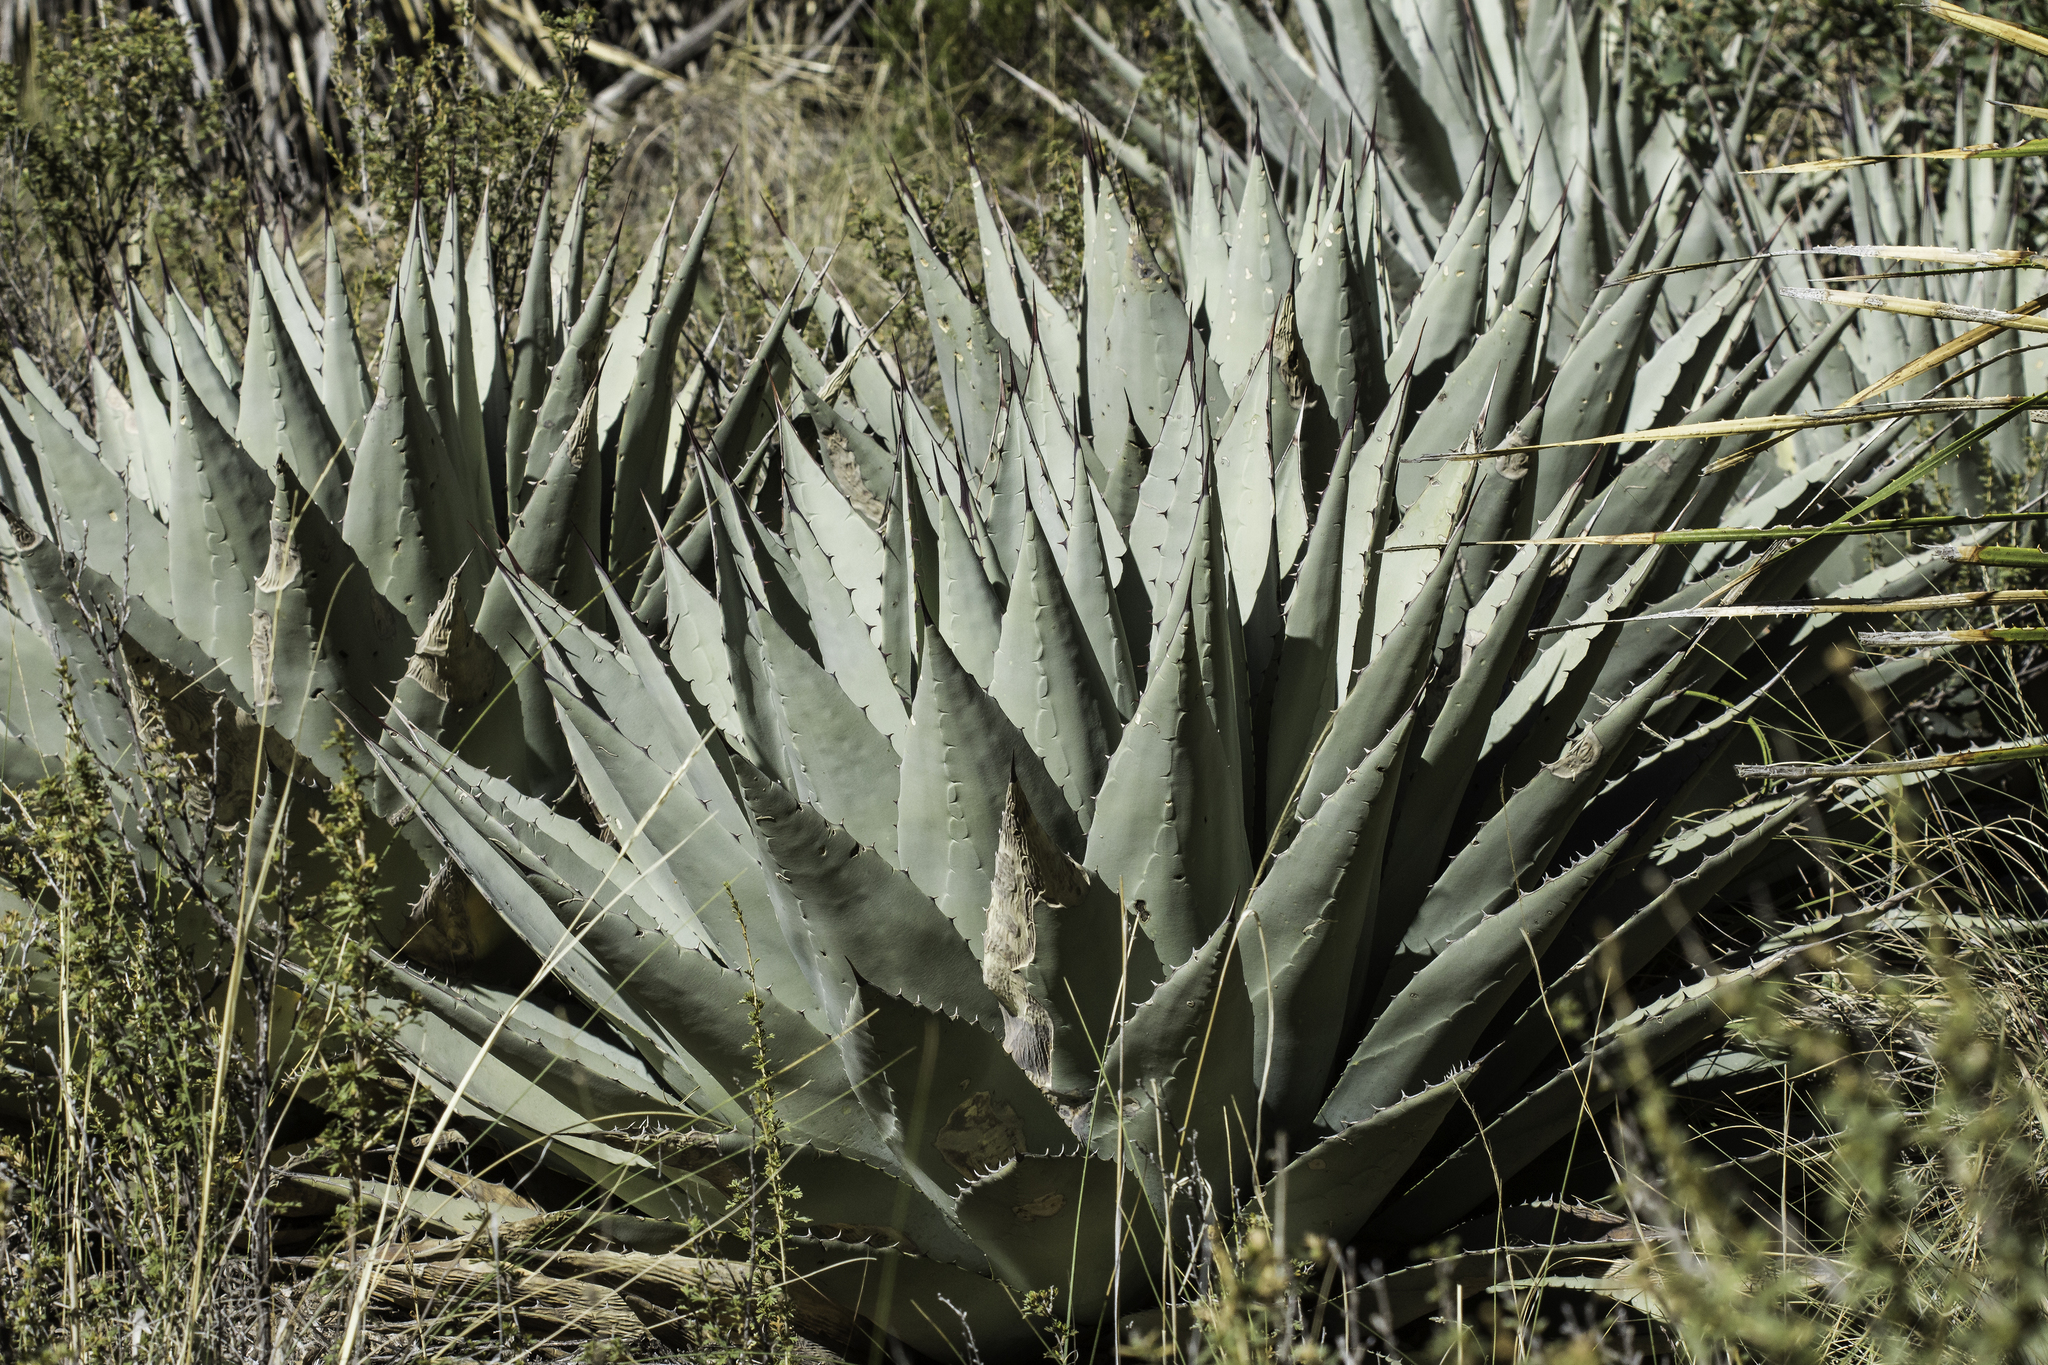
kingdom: Plantae
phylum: Tracheophyta
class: Liliopsida
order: Asparagales
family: Asparagaceae
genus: Agave
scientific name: Agave parryi
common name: Parry's agave
